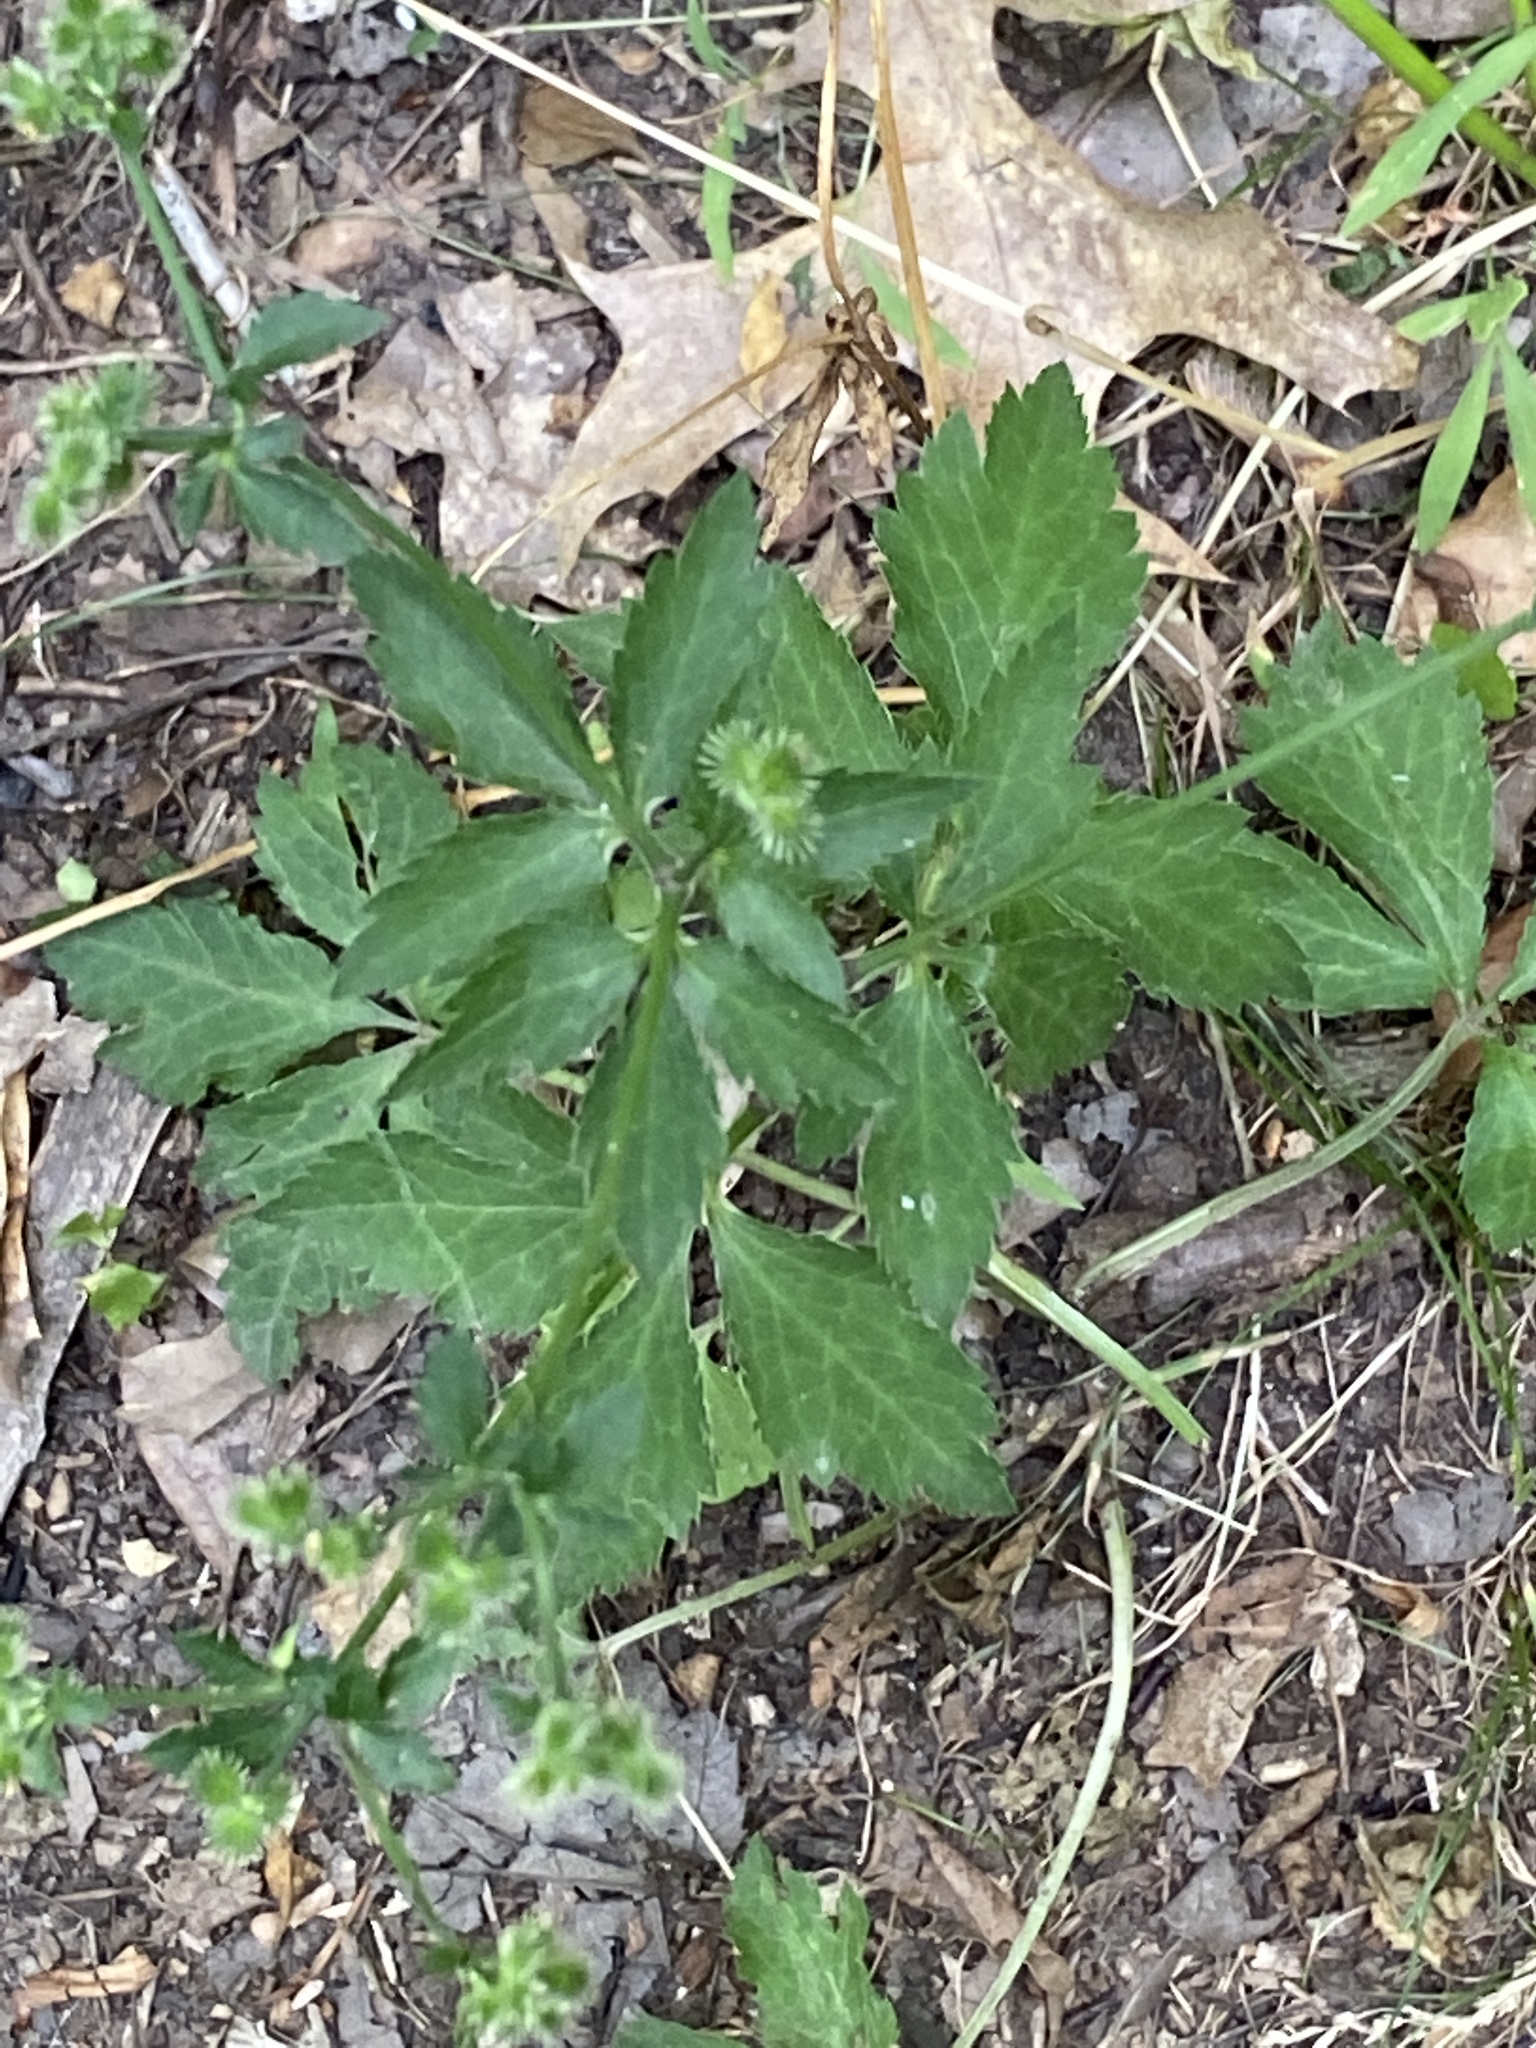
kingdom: Plantae
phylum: Tracheophyta
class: Magnoliopsida
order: Apiales
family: Apiaceae
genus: Sanicula
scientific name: Sanicula canadensis
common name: Canada sanicle
